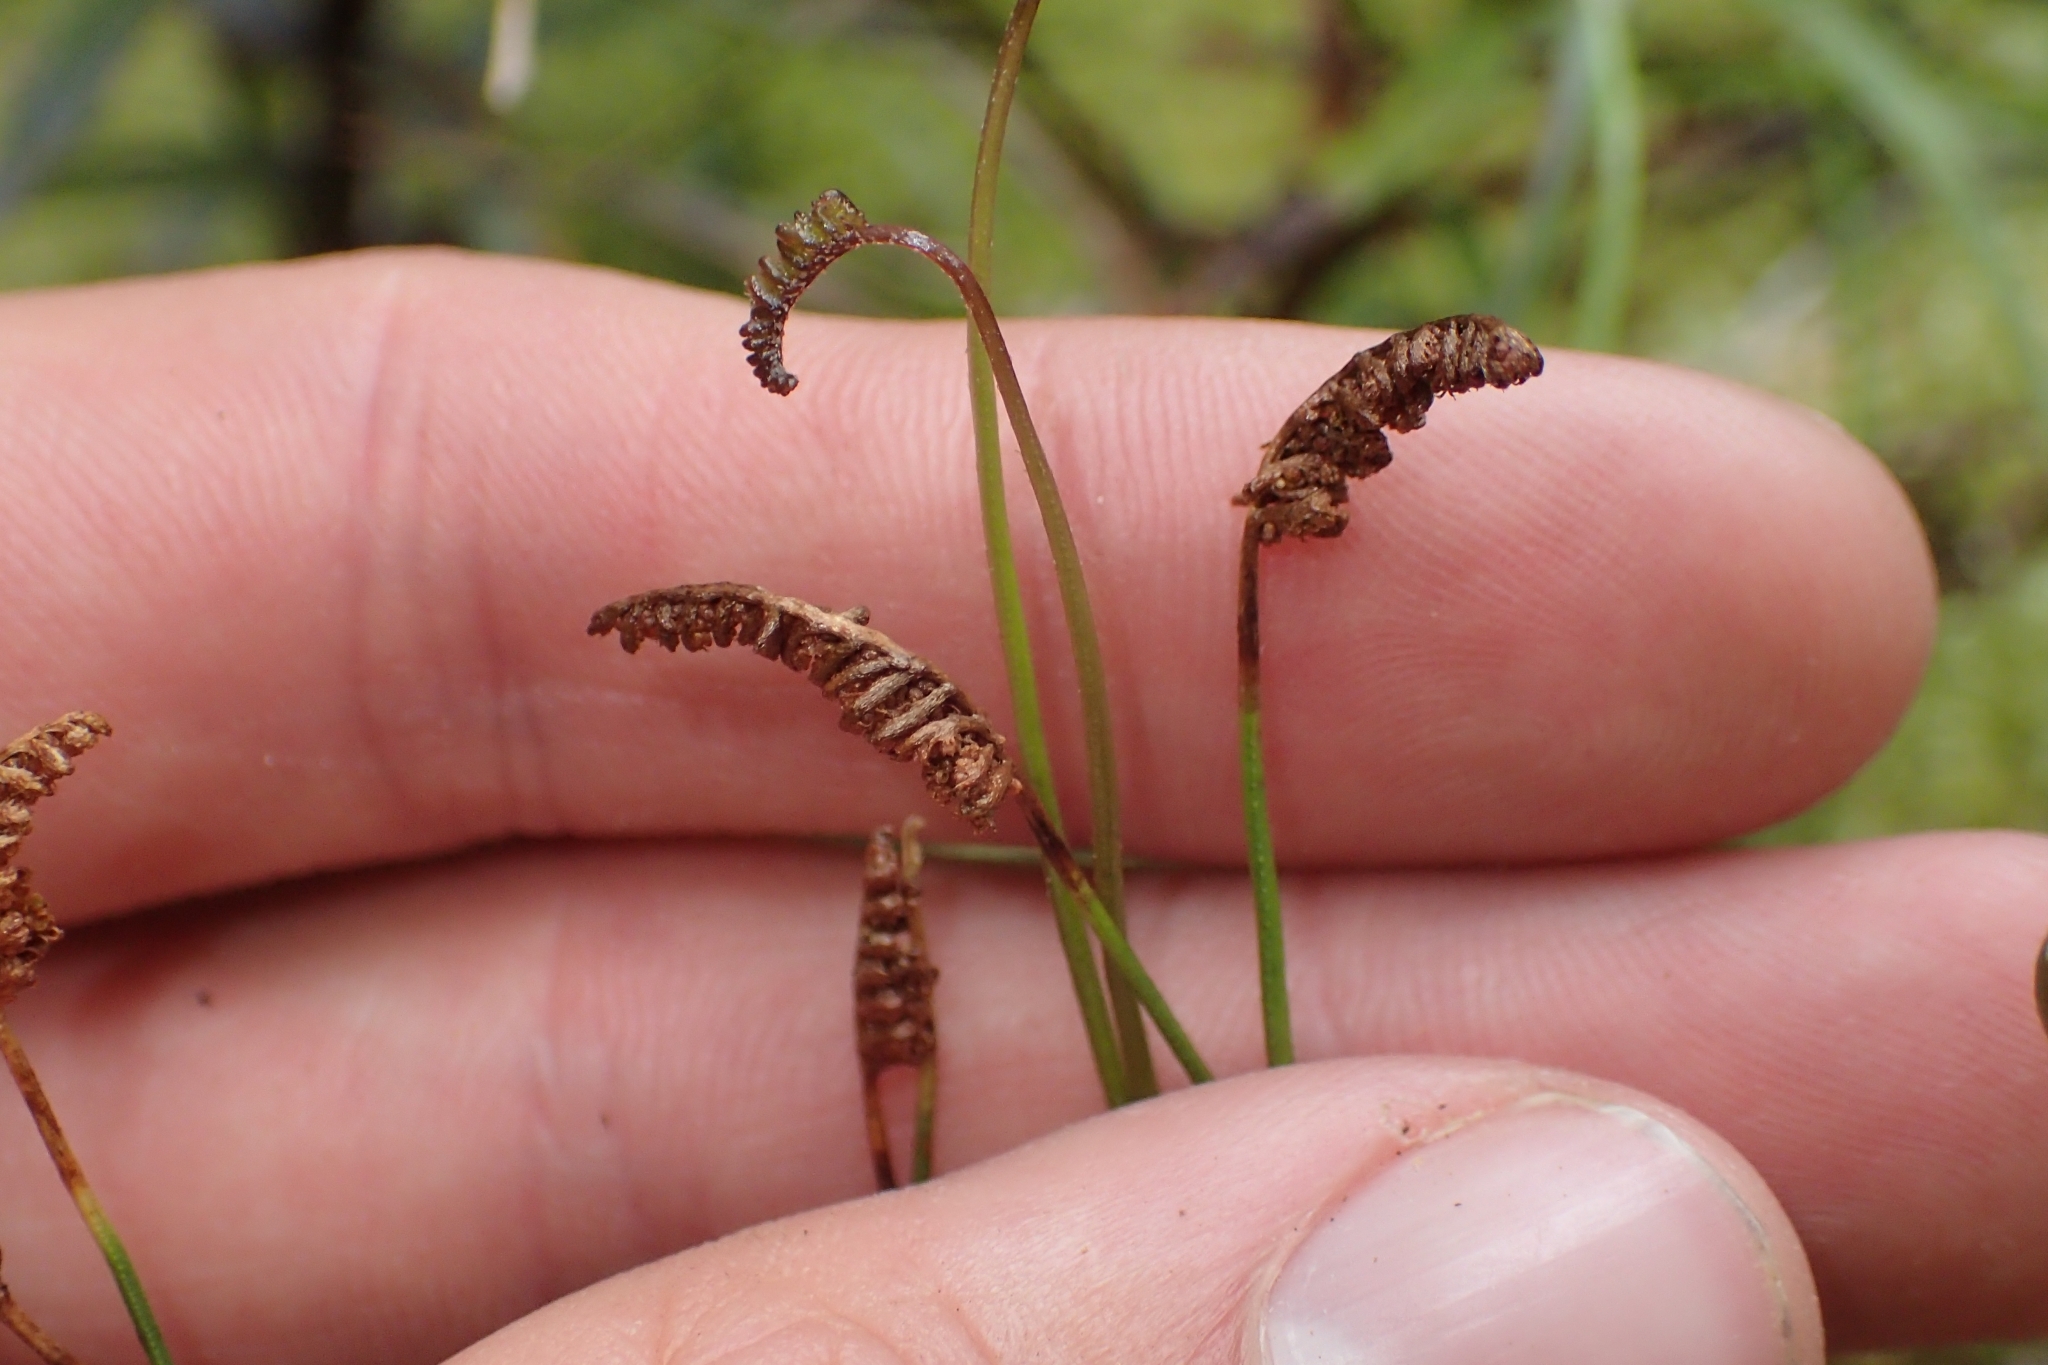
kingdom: Plantae
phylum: Tracheophyta
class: Polypodiopsida
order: Schizaeales
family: Schizaeaceae
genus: Microschizaea
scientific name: Microschizaea fistulosa
